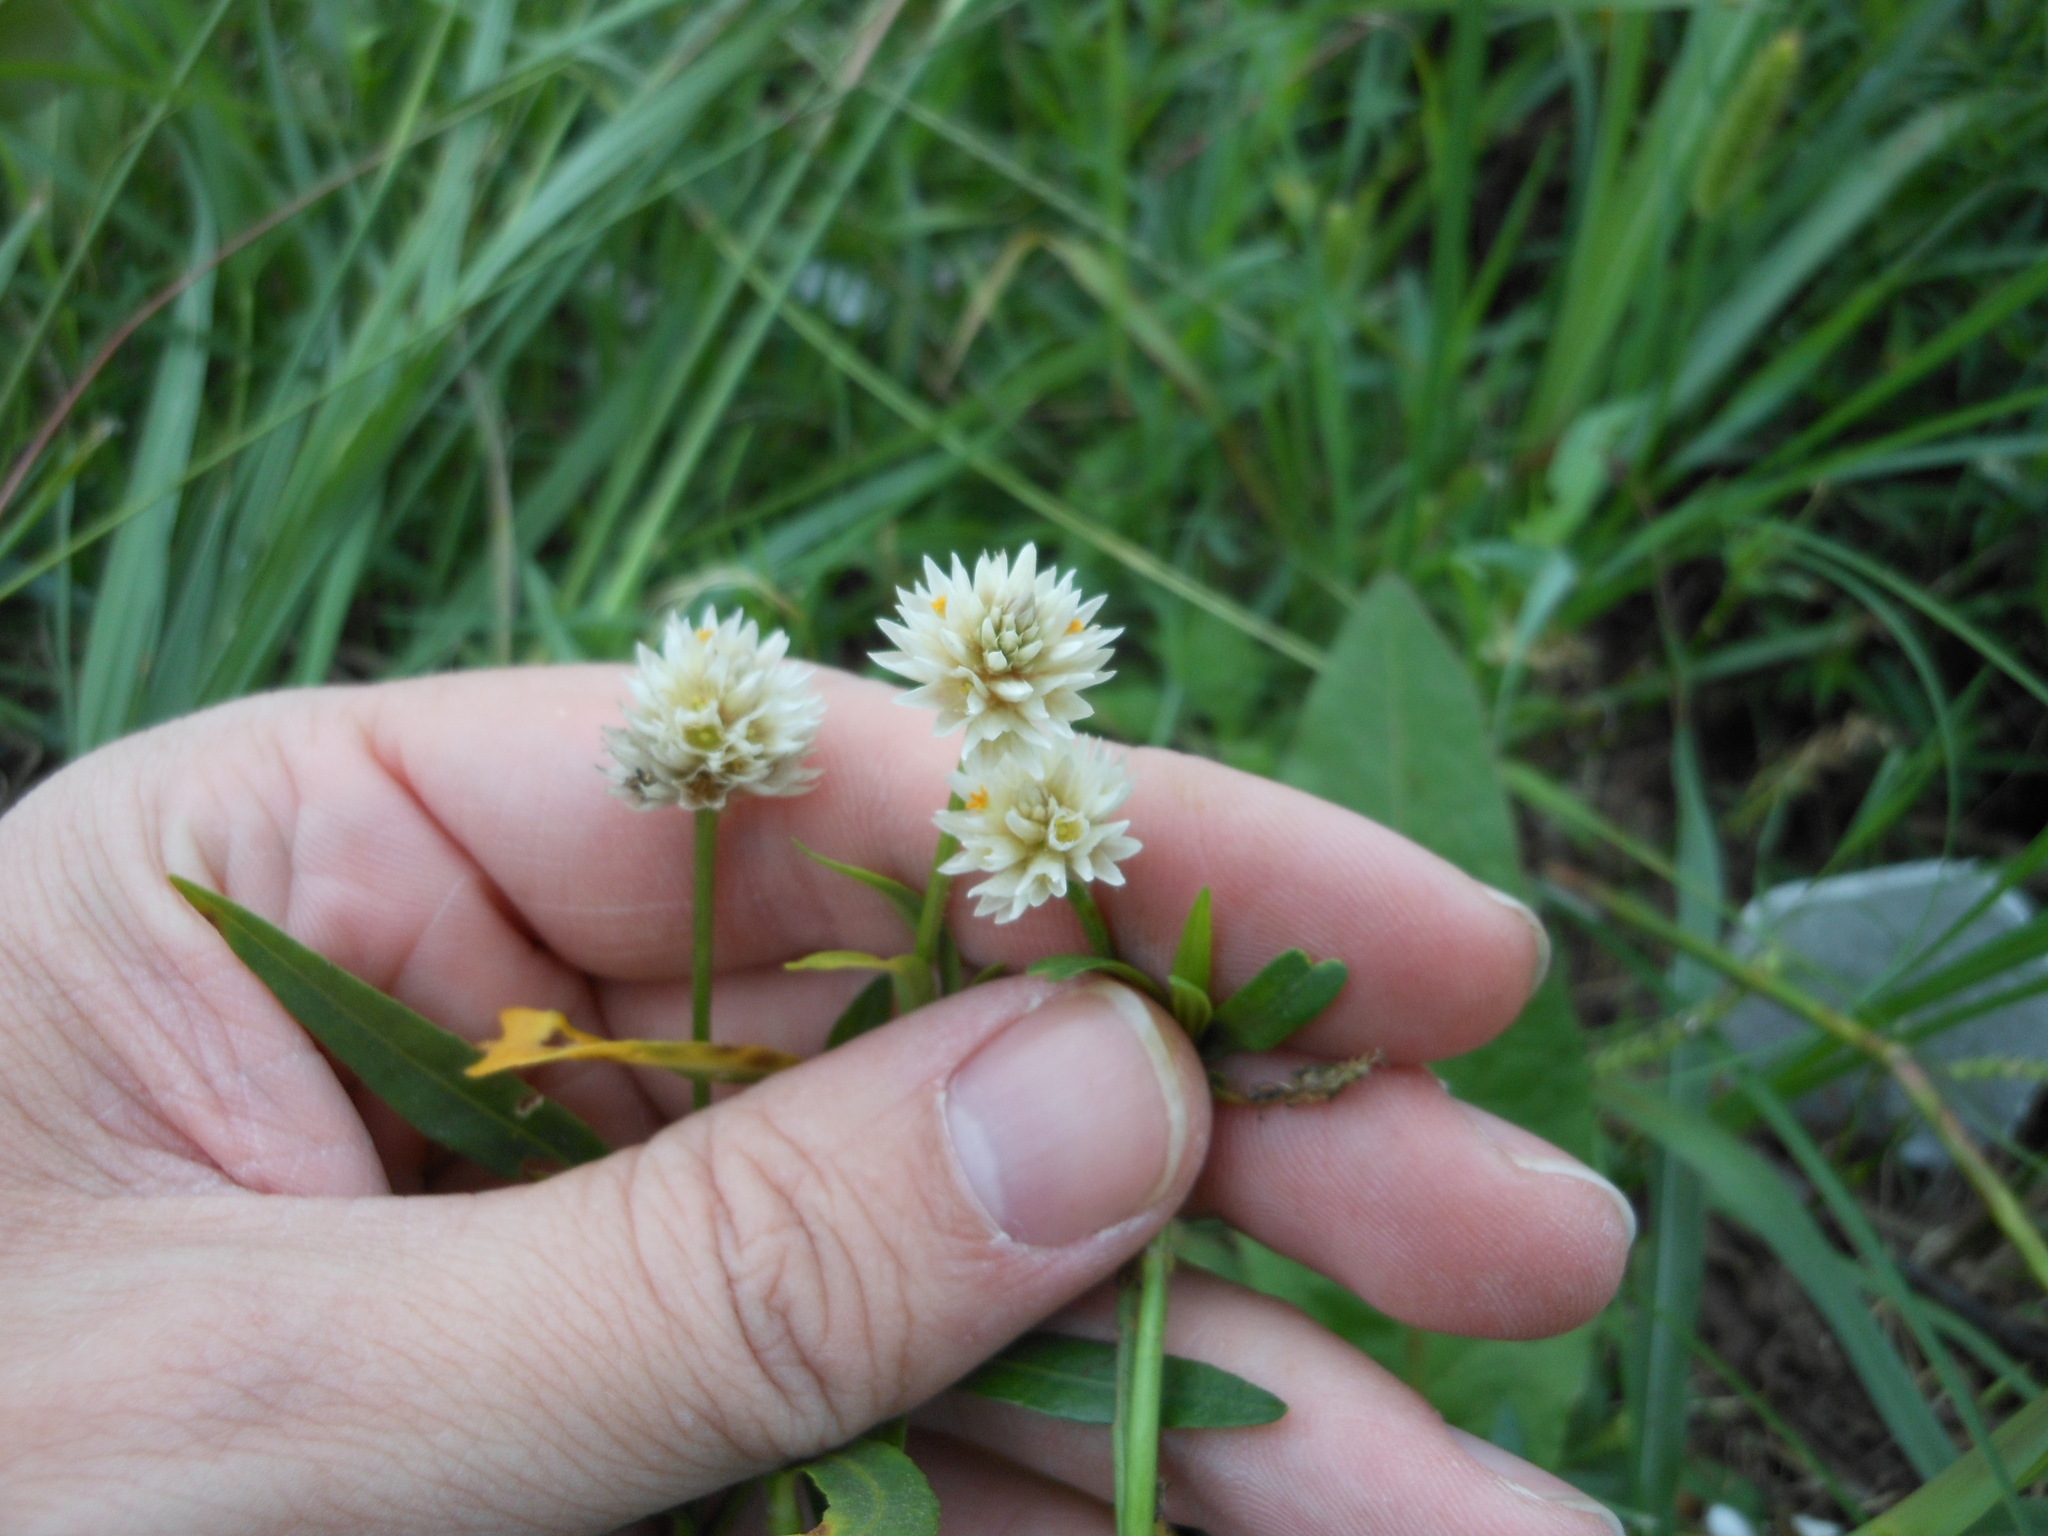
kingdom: Plantae
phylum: Tracheophyta
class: Magnoliopsida
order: Caryophyllales
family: Amaranthaceae
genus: Alternanthera
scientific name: Alternanthera philoxeroides
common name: Alligatorweed
